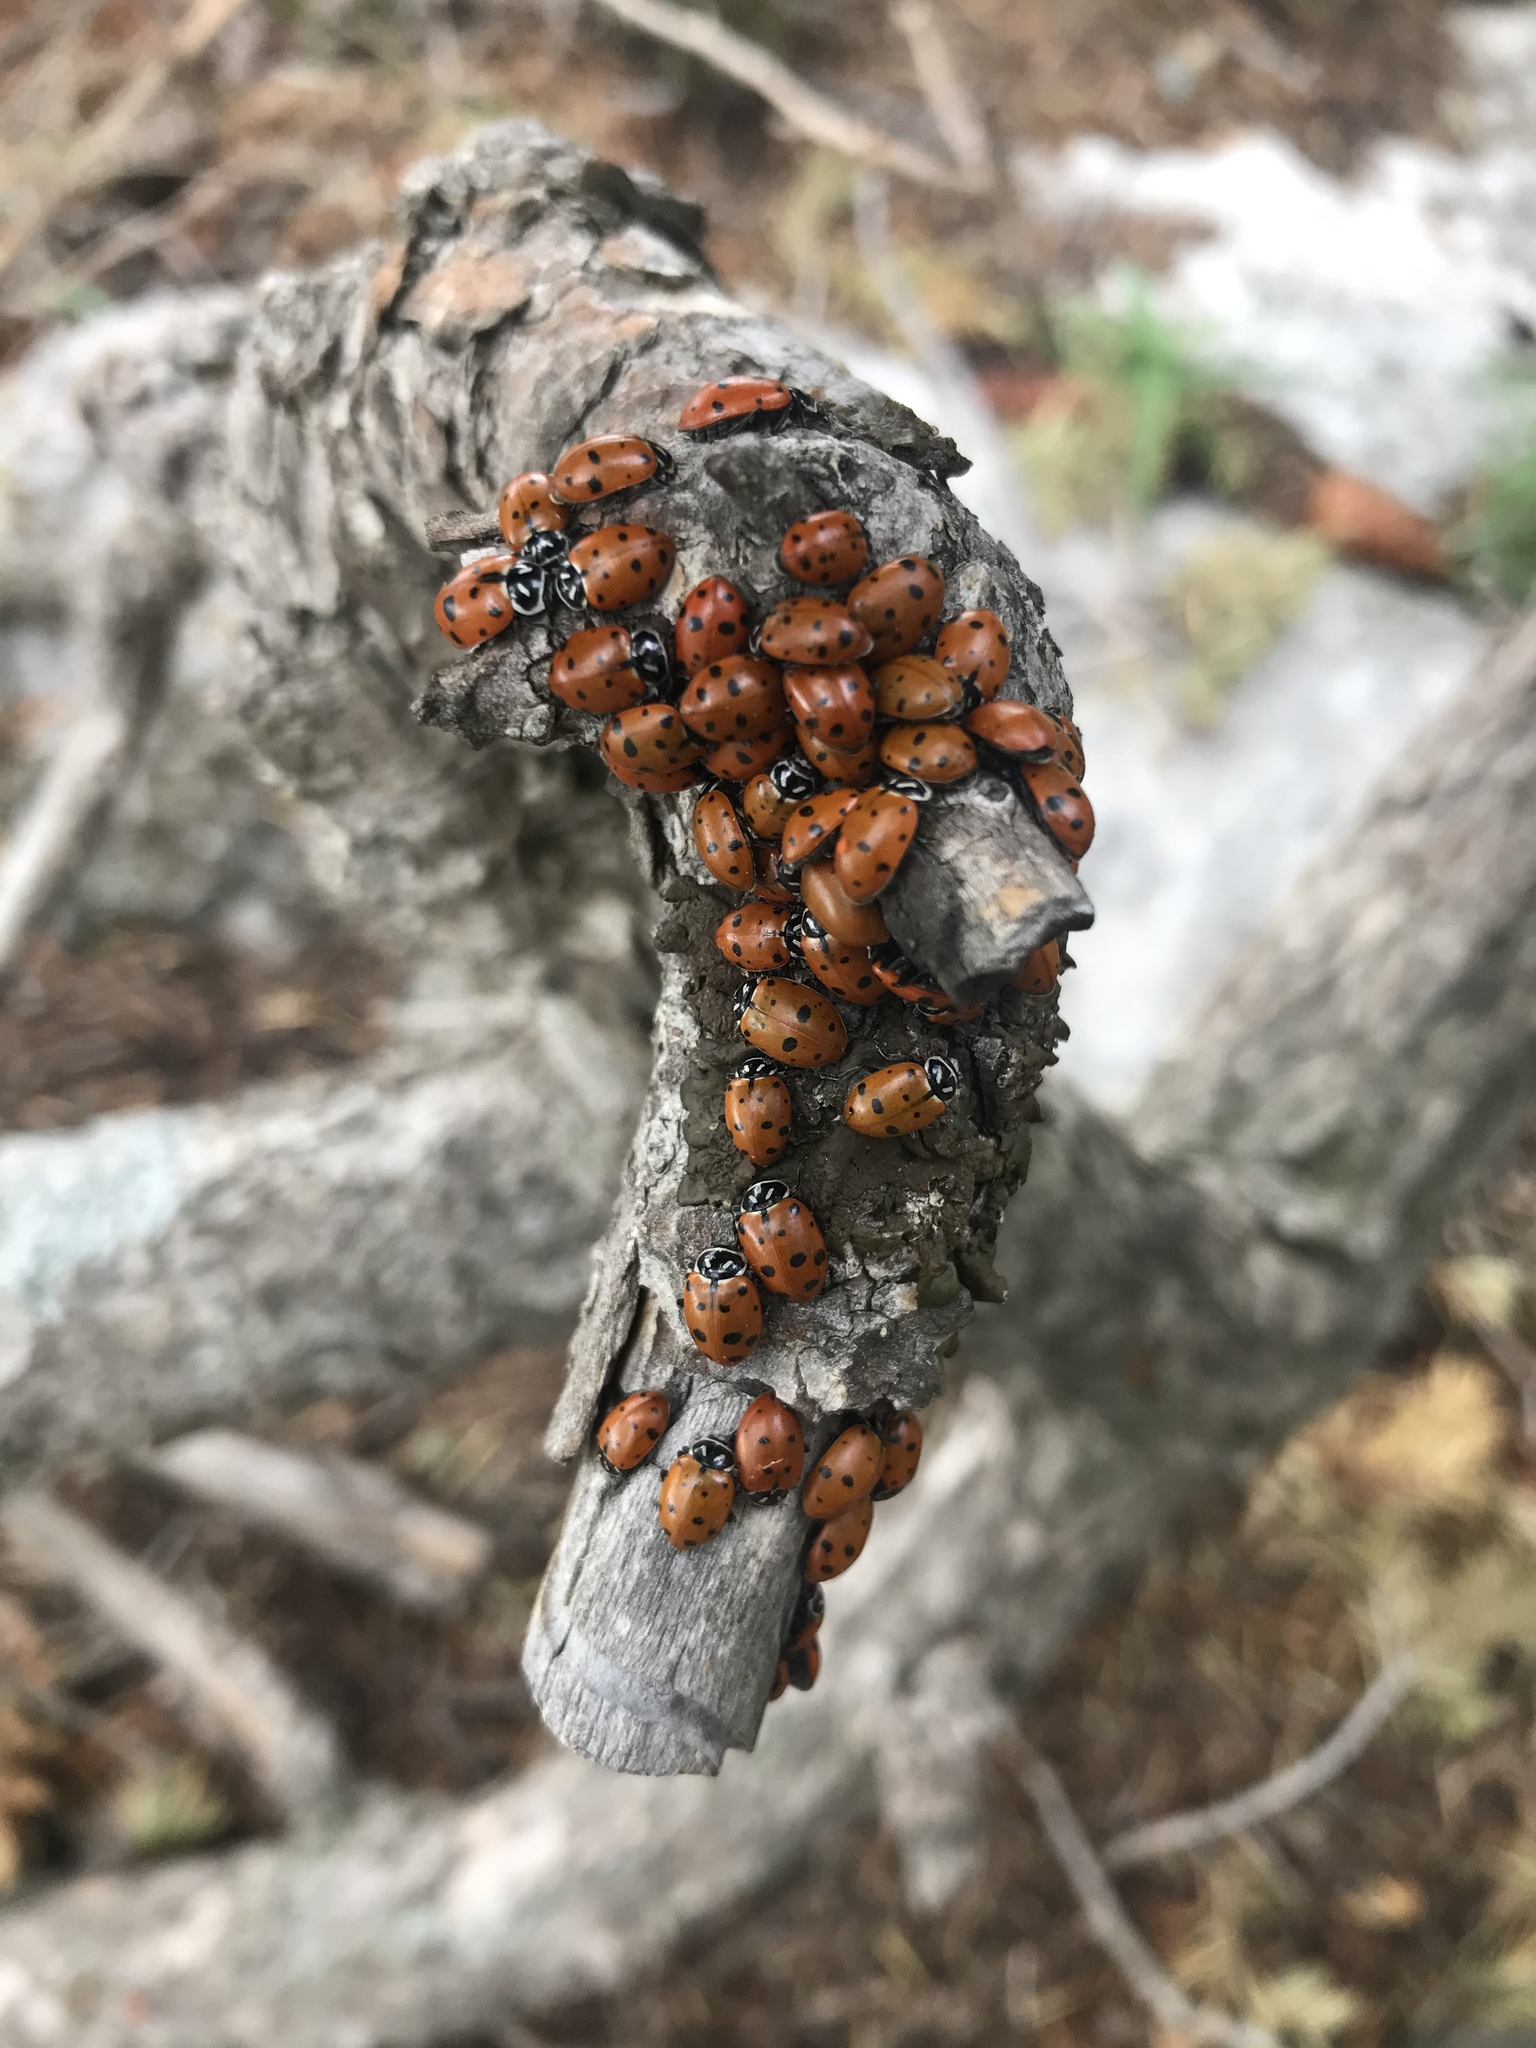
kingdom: Animalia
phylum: Arthropoda
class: Insecta
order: Coleoptera
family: Coccinellidae
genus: Hippodamia
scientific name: Hippodamia convergens
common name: Convergent lady beetle
